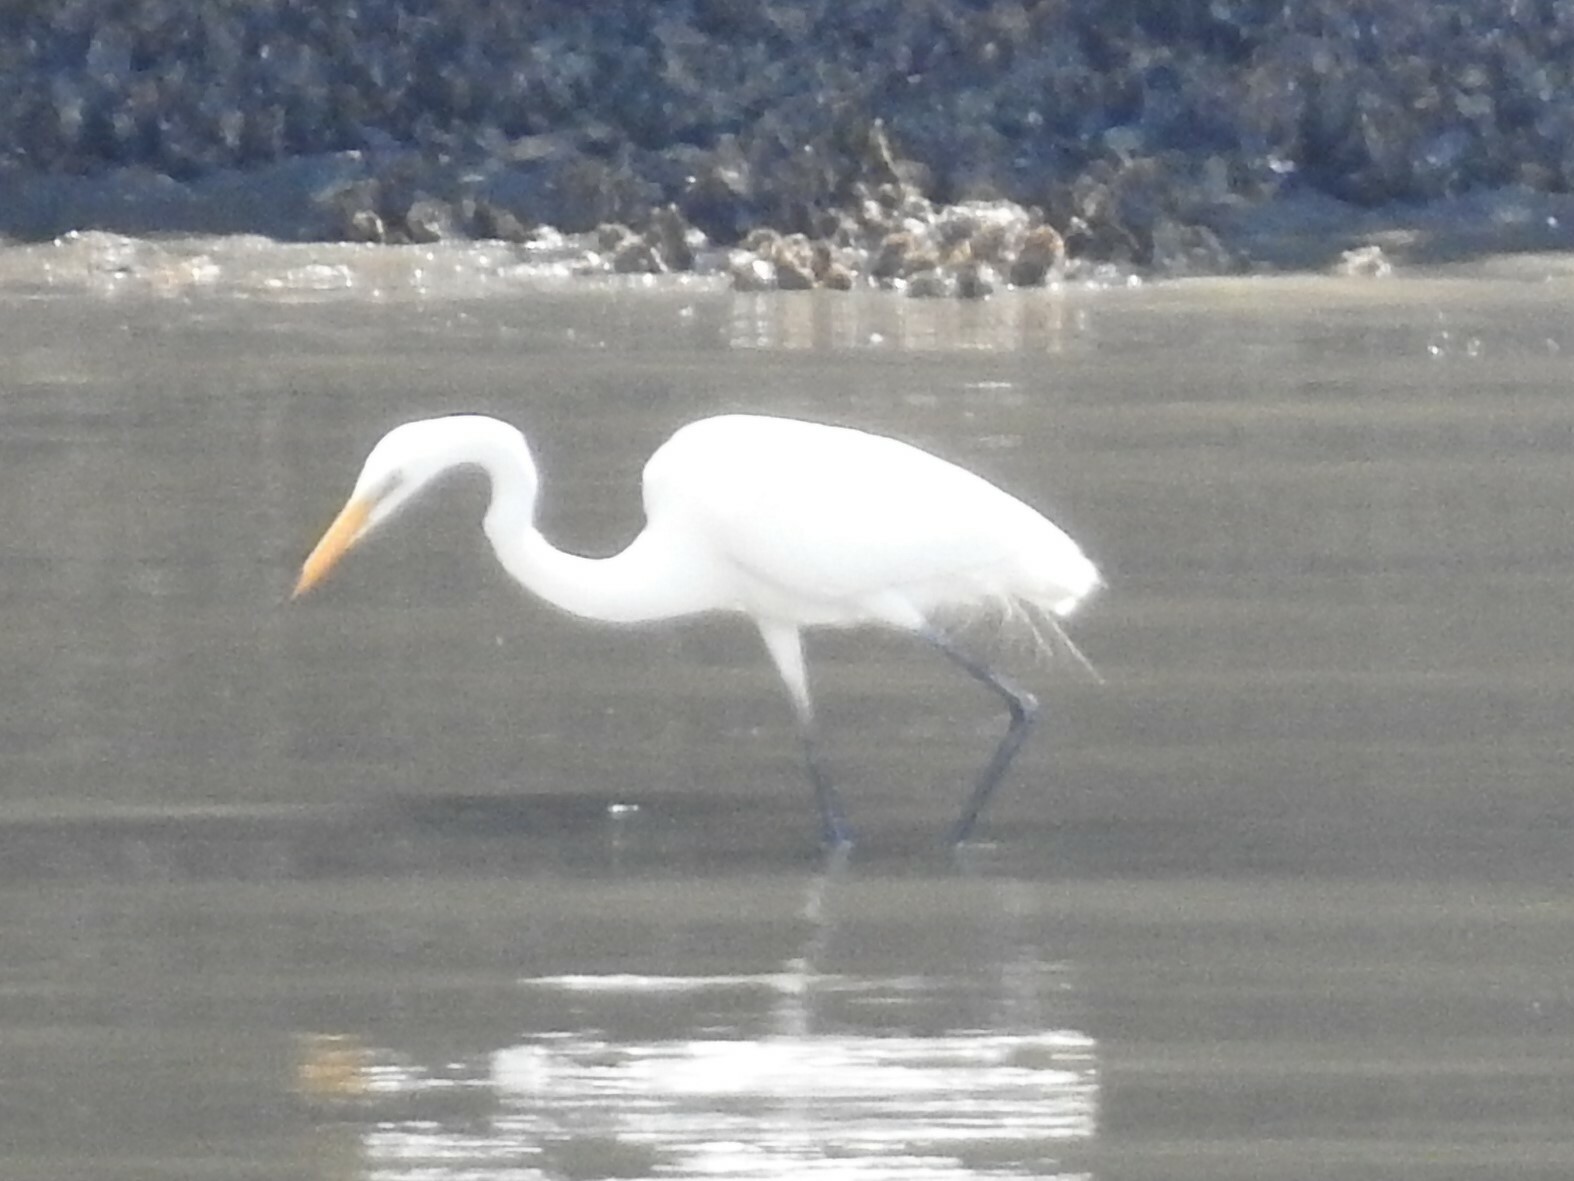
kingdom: Animalia
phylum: Chordata
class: Aves
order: Pelecaniformes
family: Ardeidae
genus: Ardea
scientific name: Ardea alba
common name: Great egret
